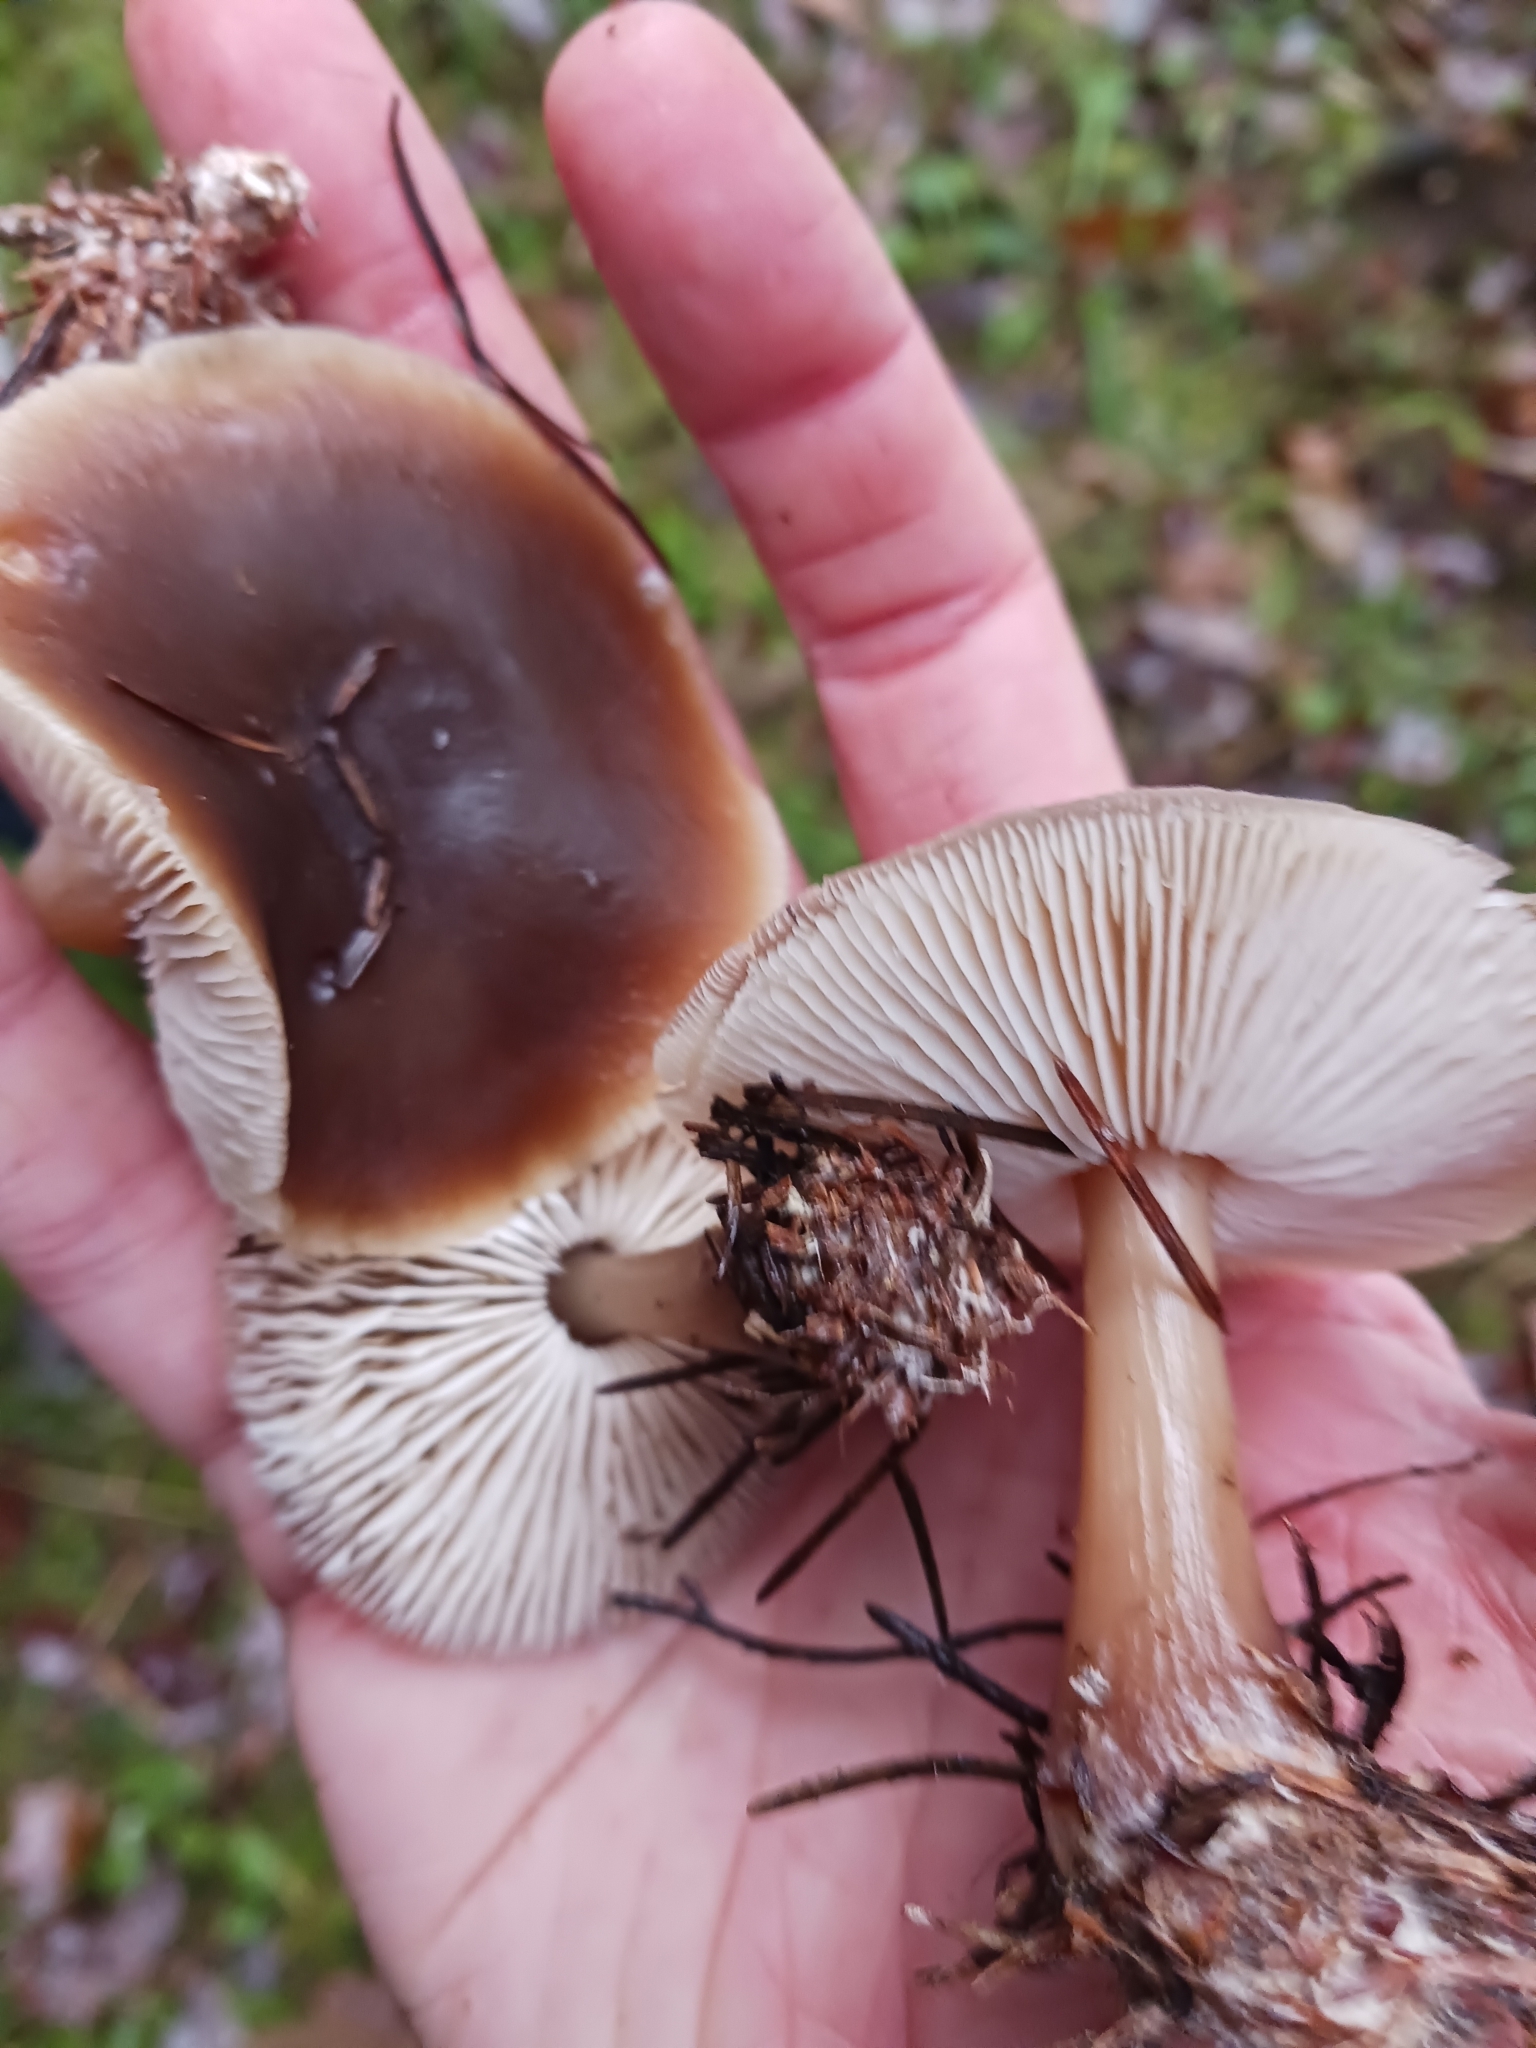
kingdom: Fungi
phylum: Basidiomycota
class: Agaricomycetes
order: Agaricales
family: Omphalotaceae
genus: Rhodocollybia
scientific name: Rhodocollybia butyracea
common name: Butter cap
